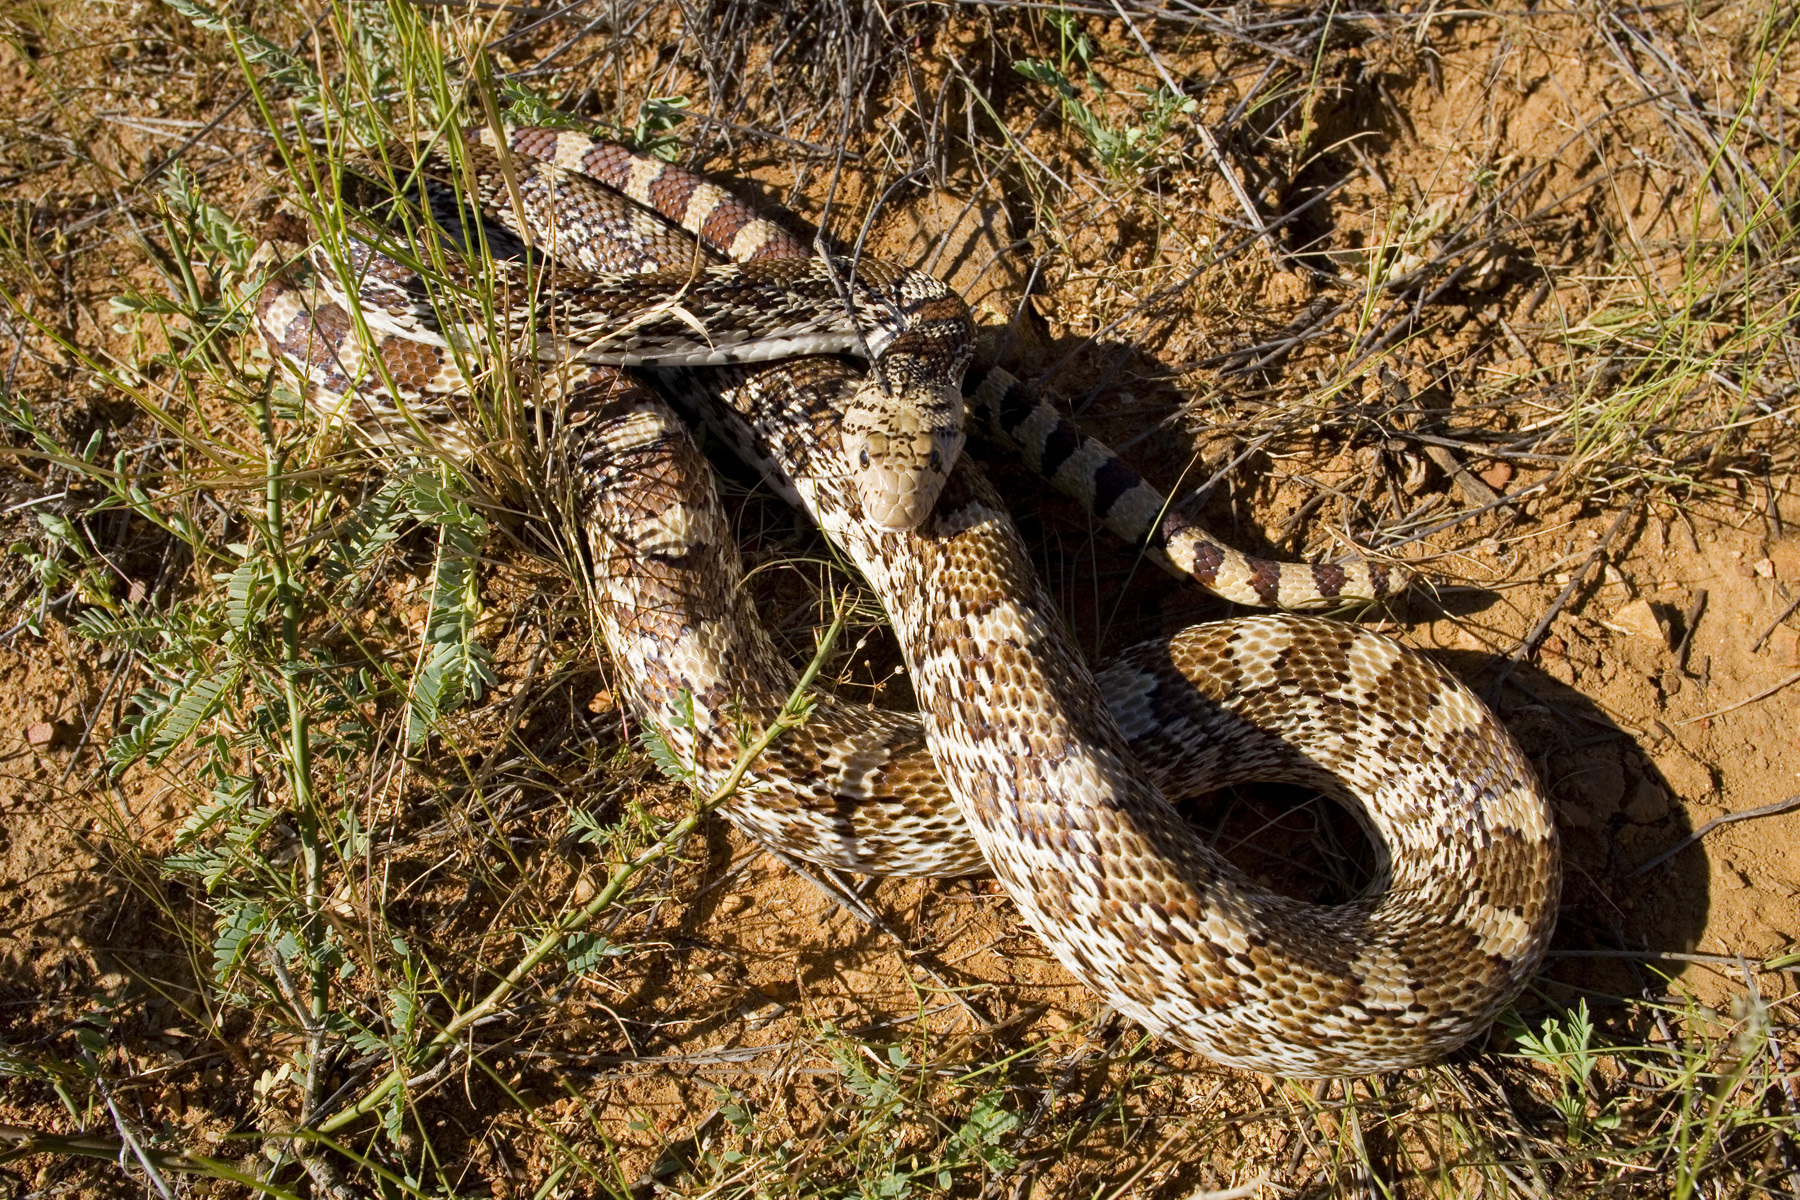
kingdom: Animalia
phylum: Chordata
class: Squamata
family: Colubridae
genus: Pituophis
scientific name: Pituophis catenifer
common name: Gopher snake
